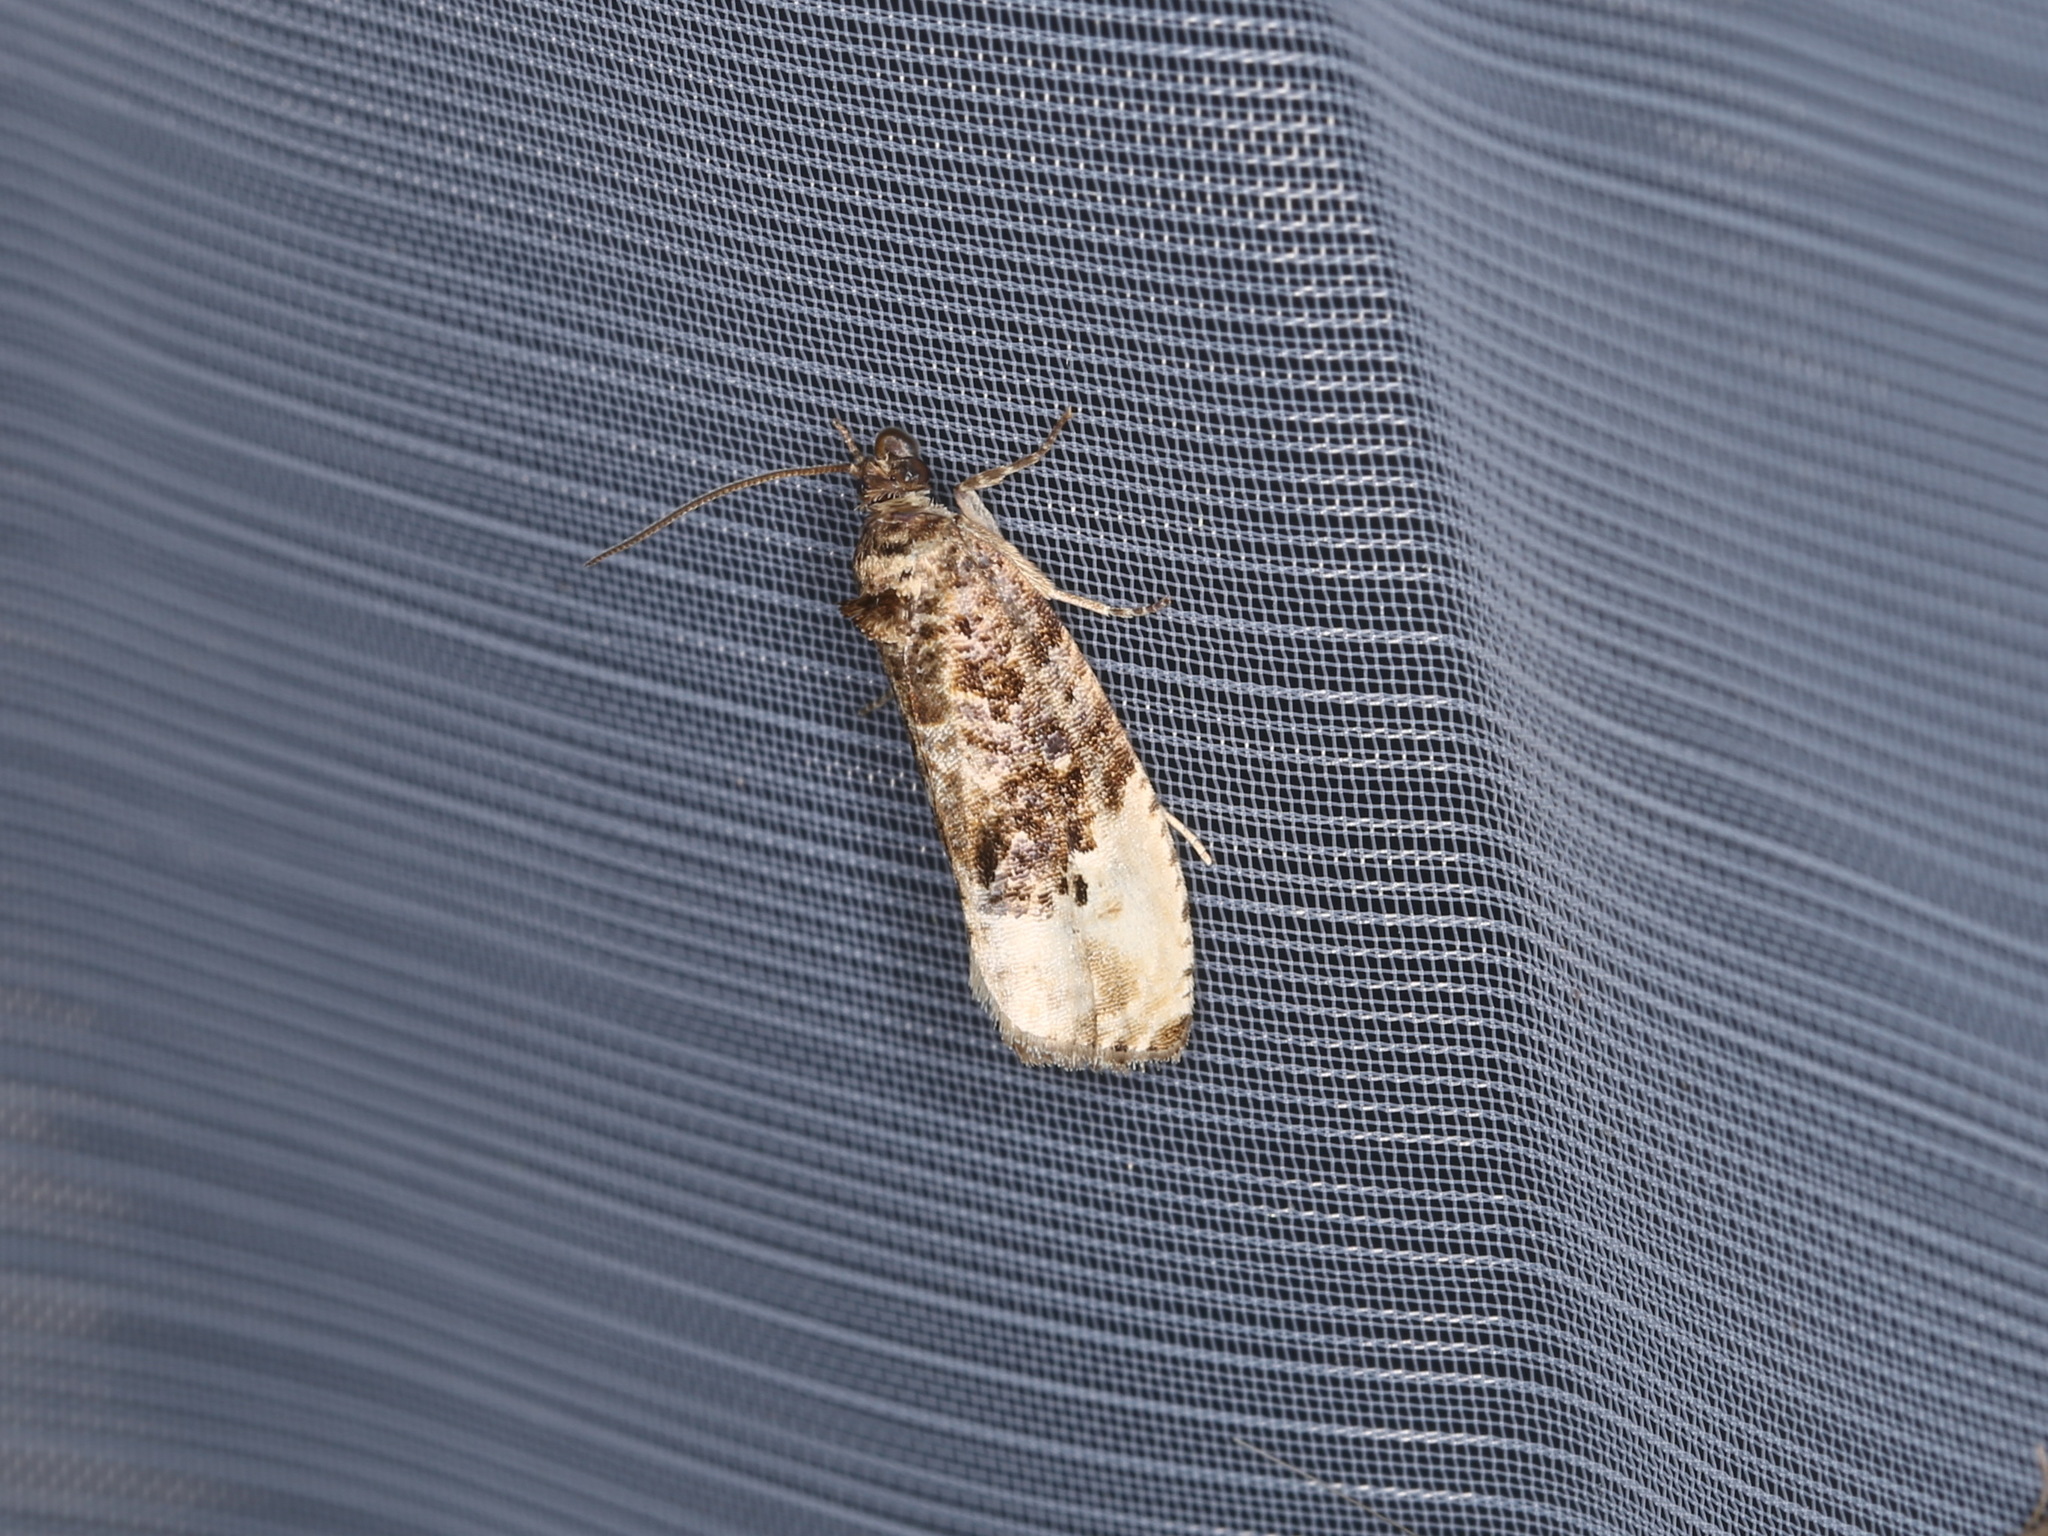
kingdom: Animalia
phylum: Arthropoda
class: Insecta
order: Lepidoptera
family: Tortricidae
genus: Hedya
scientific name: Hedya nubiferana
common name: Marbled orchard tortrix
